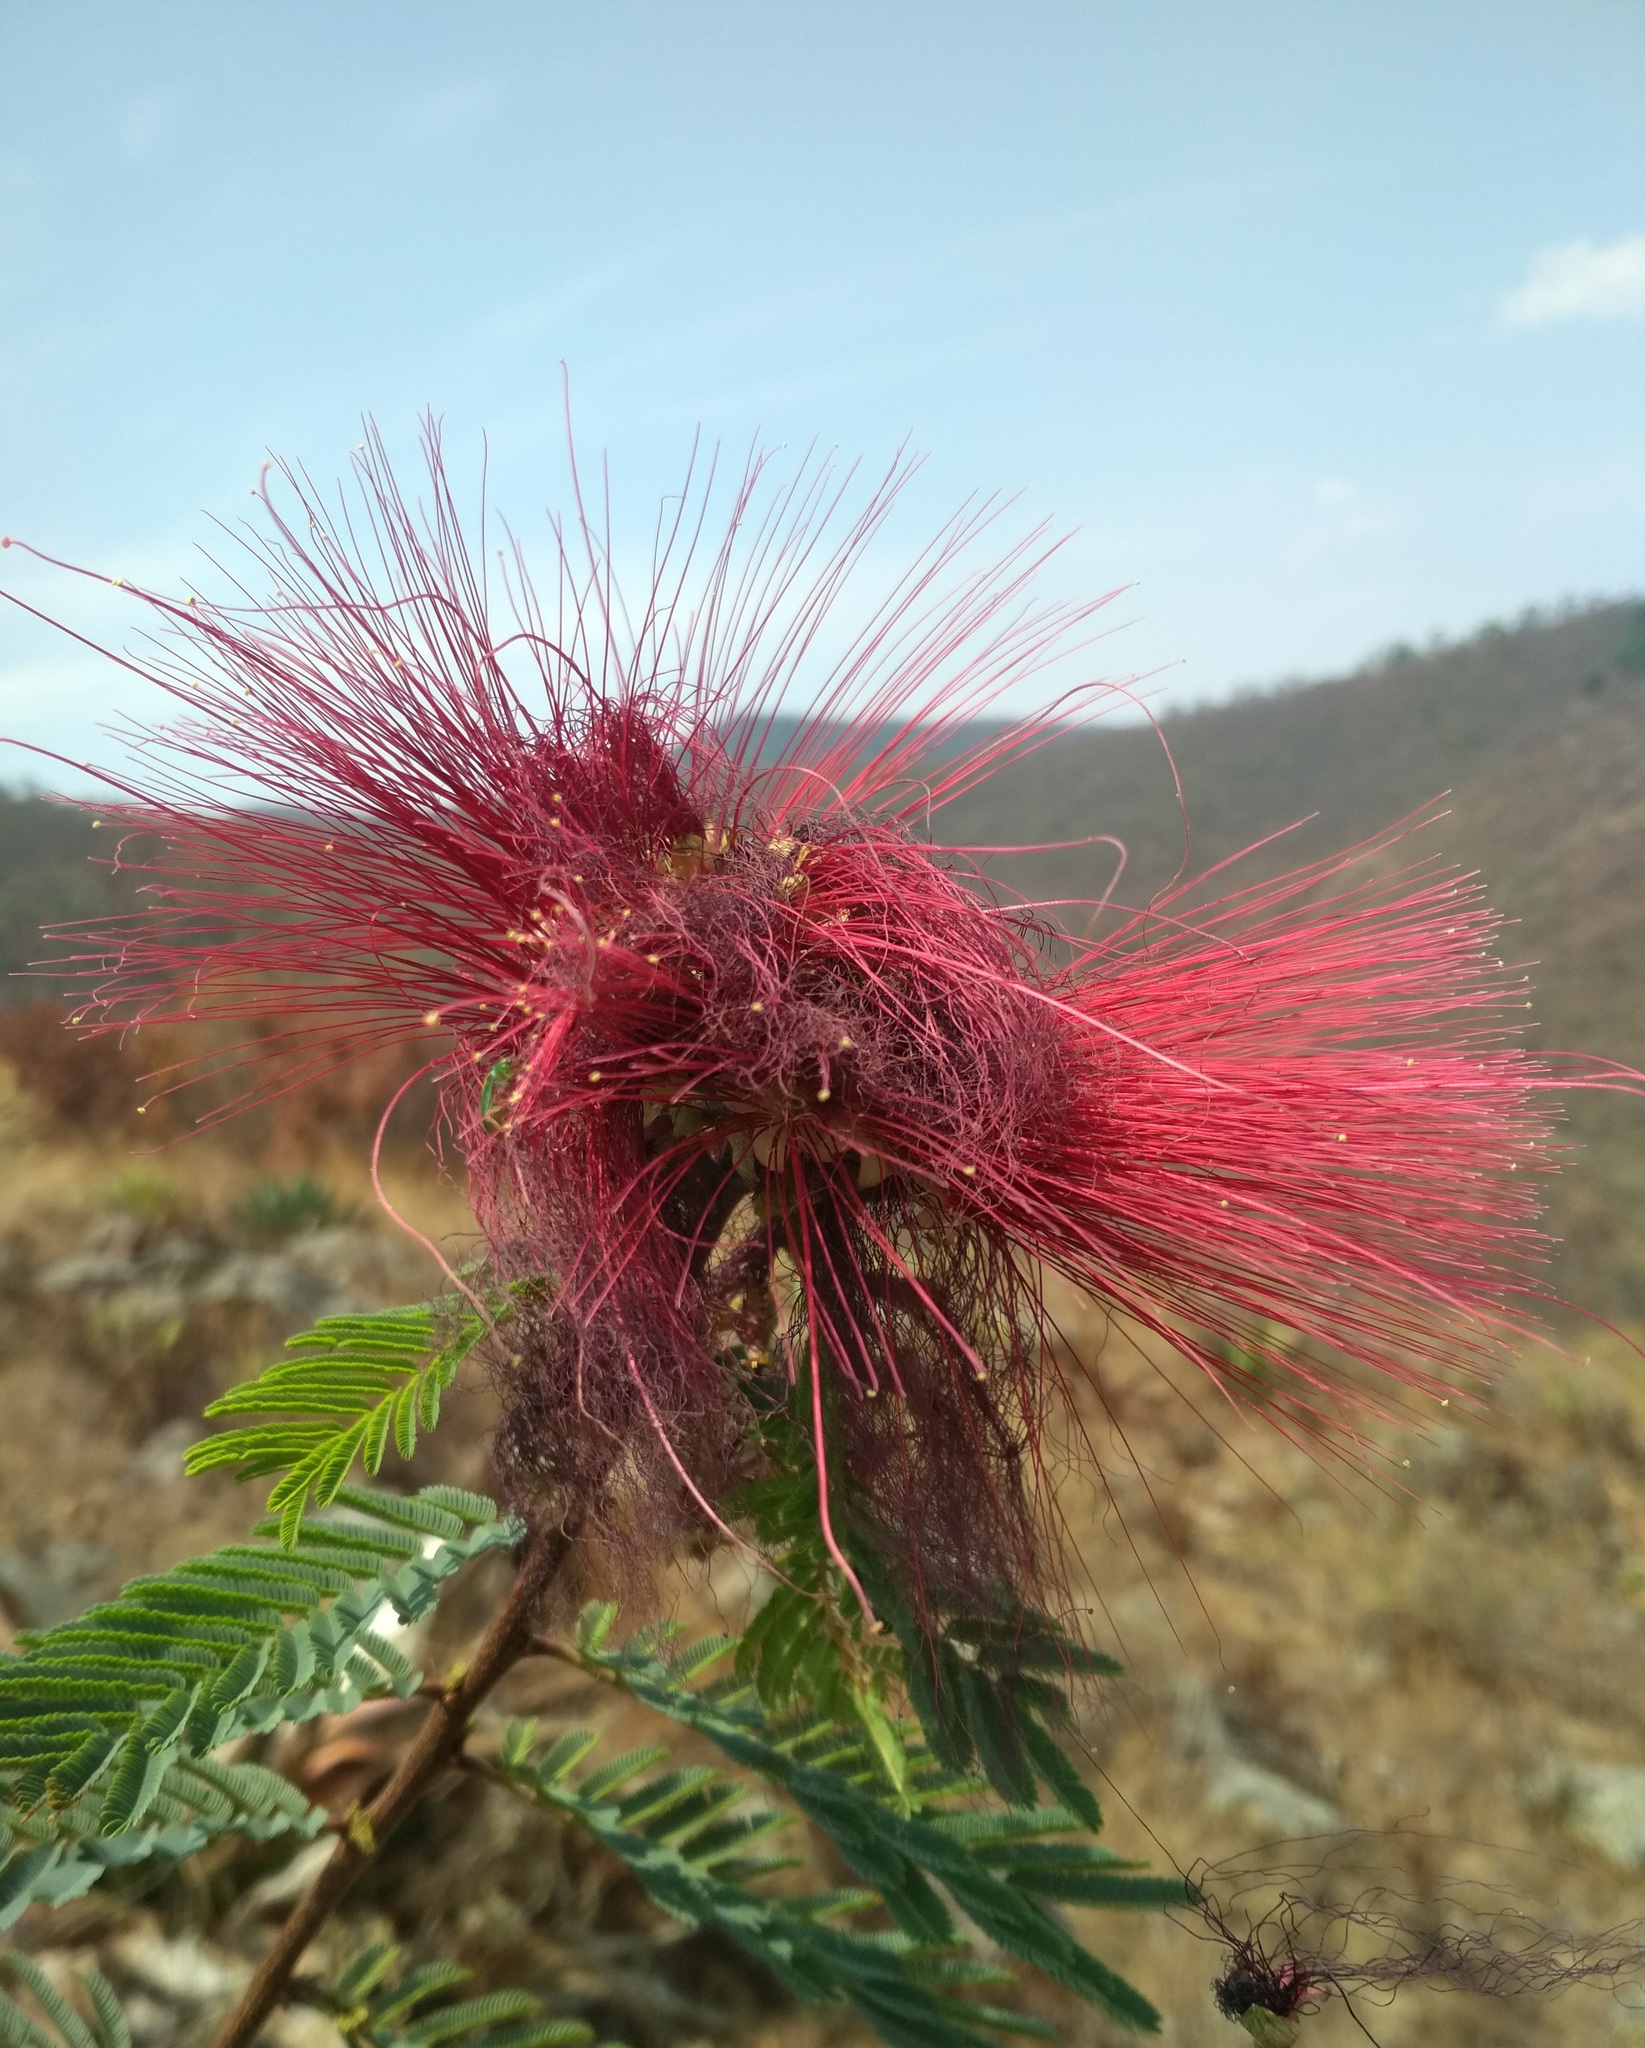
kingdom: Plantae
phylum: Tracheophyta
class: Magnoliopsida
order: Fabales
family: Fabaceae
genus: Calliandra
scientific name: Calliandra houstoniana
